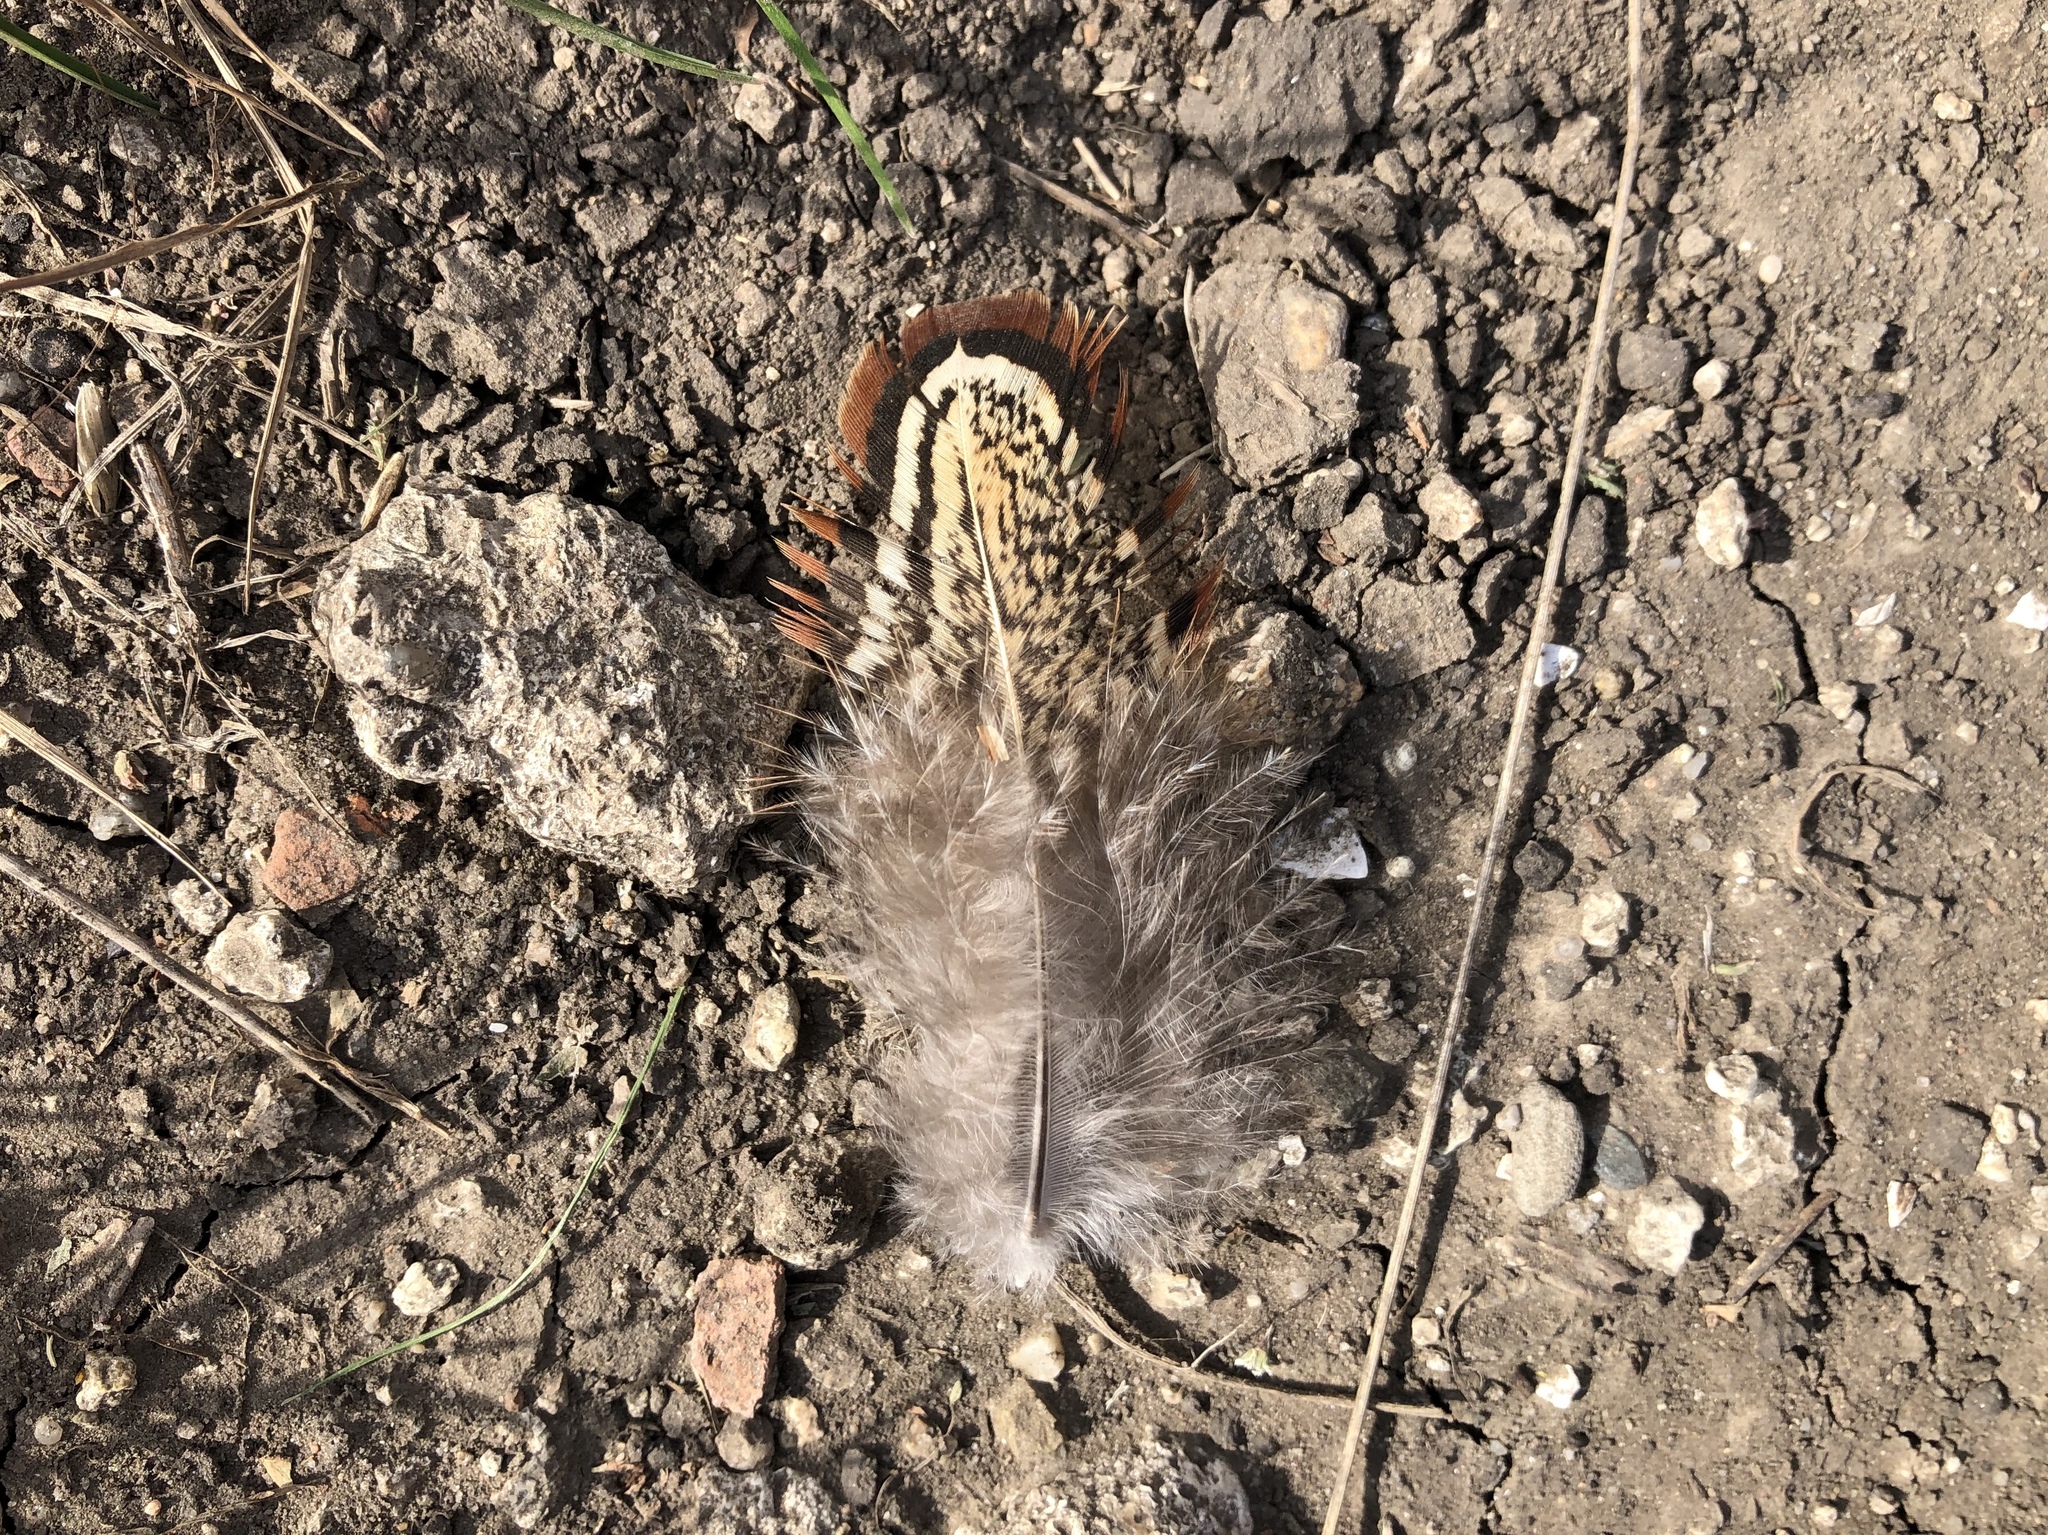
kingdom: Animalia
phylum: Chordata
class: Aves
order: Galliformes
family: Phasianidae
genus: Phasianus
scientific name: Phasianus colchicus
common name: Common pheasant
